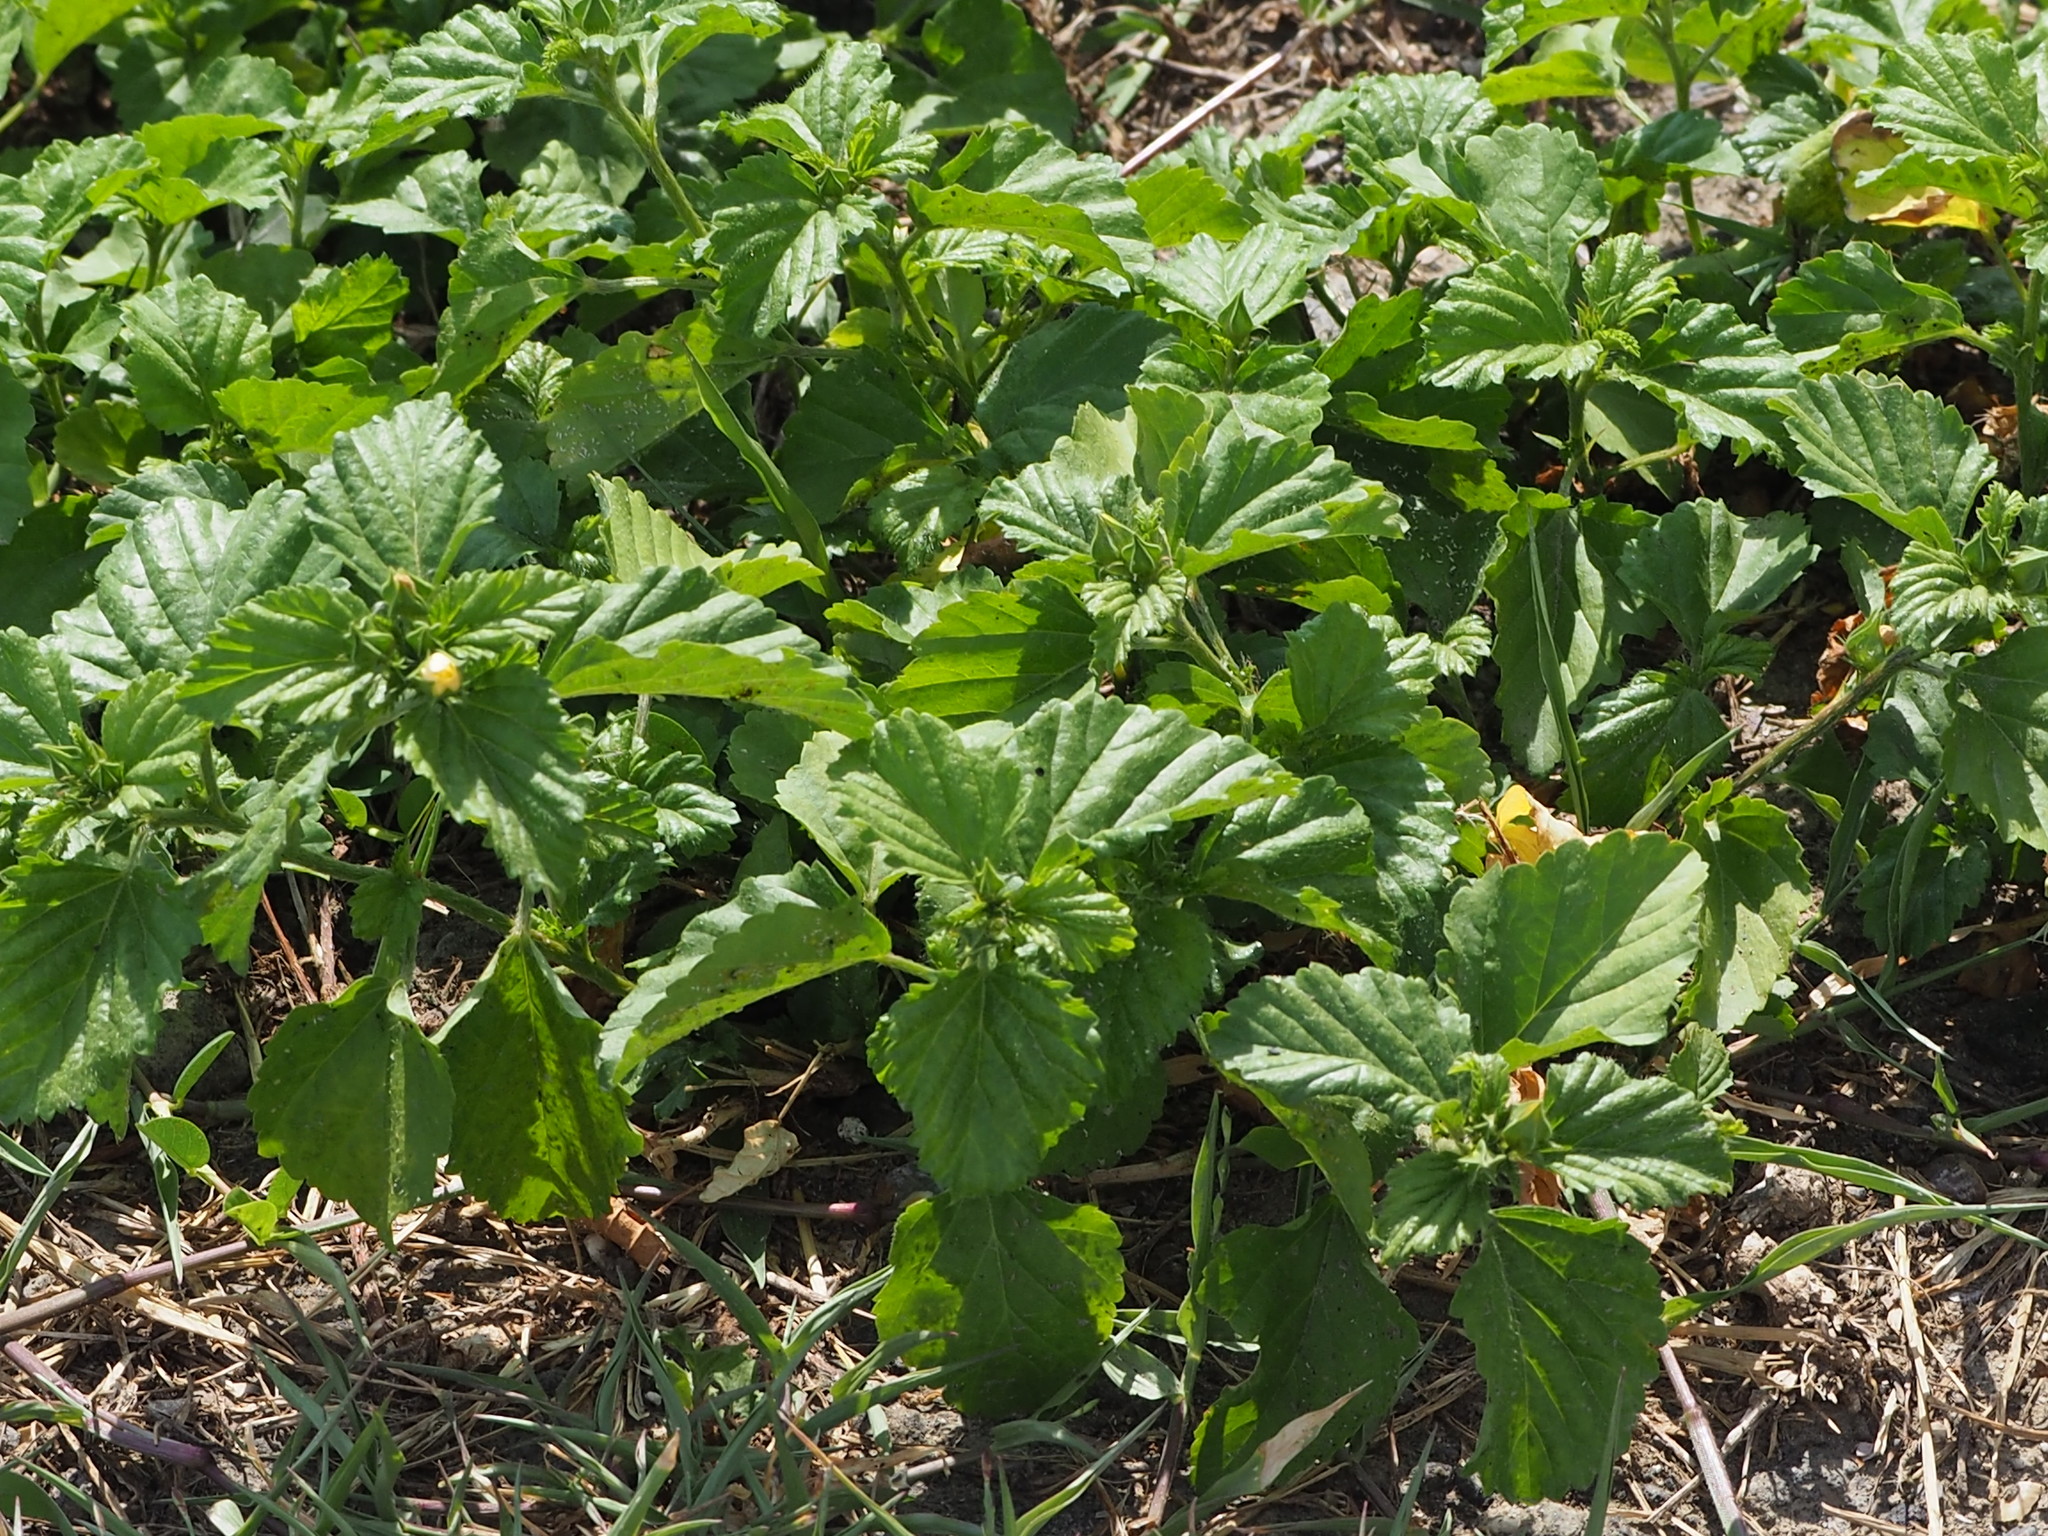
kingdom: Plantae
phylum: Tracheophyta
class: Magnoliopsida
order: Malvales
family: Malvaceae
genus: Malvastrum
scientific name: Malvastrum coromandelianum
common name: Threelobe false mallow
